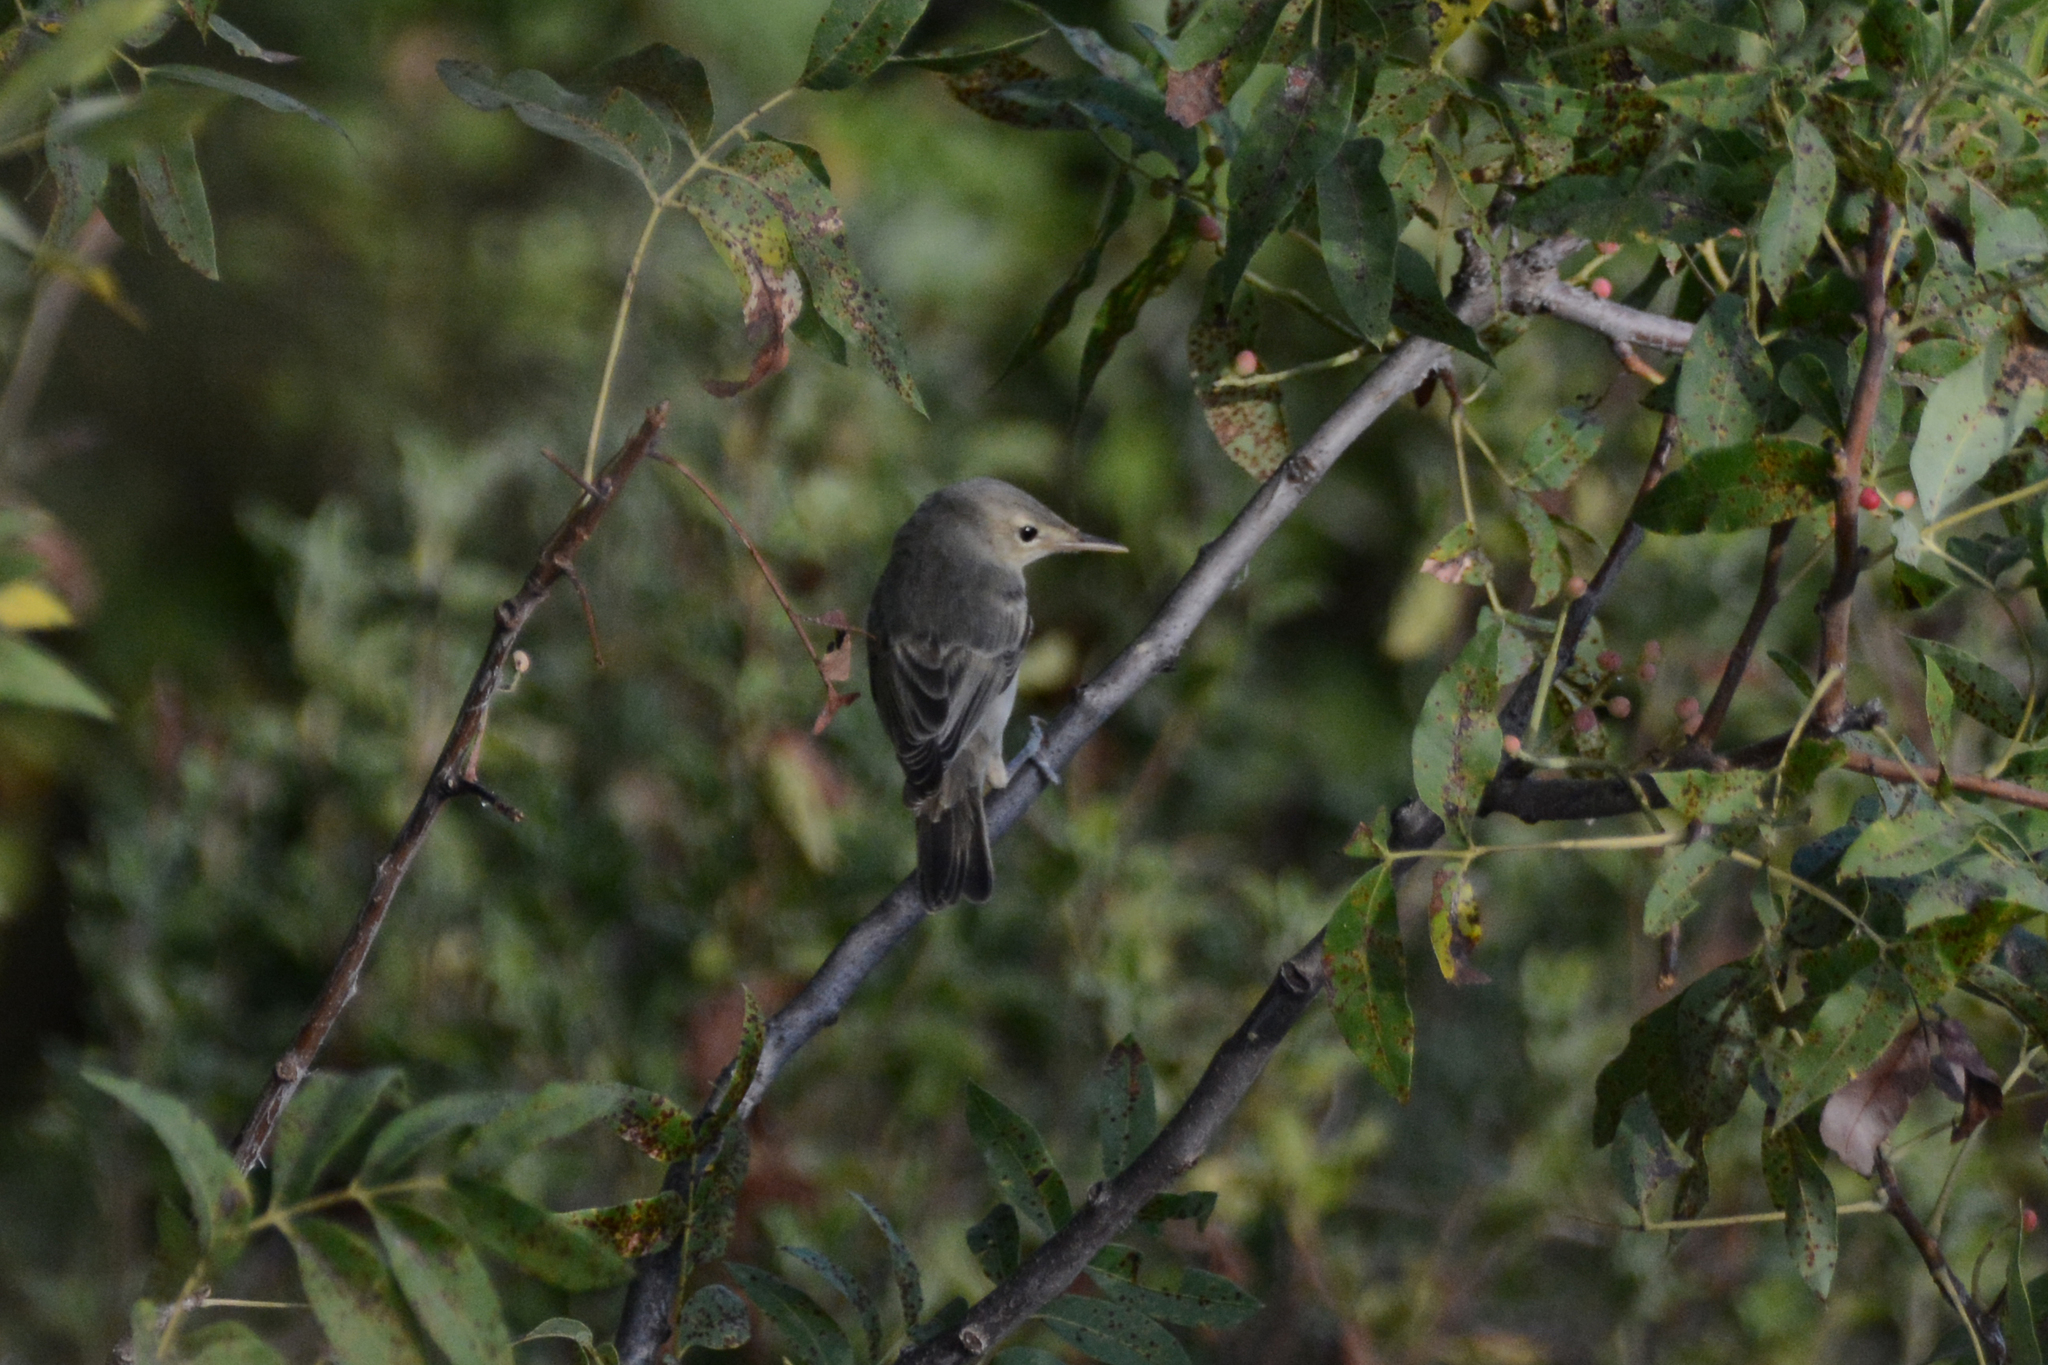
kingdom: Animalia
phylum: Chordata
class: Aves
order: Passeriformes
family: Acrocephalidae
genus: Iduna
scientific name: Iduna pallida
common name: Eastern olivaceous warbler
